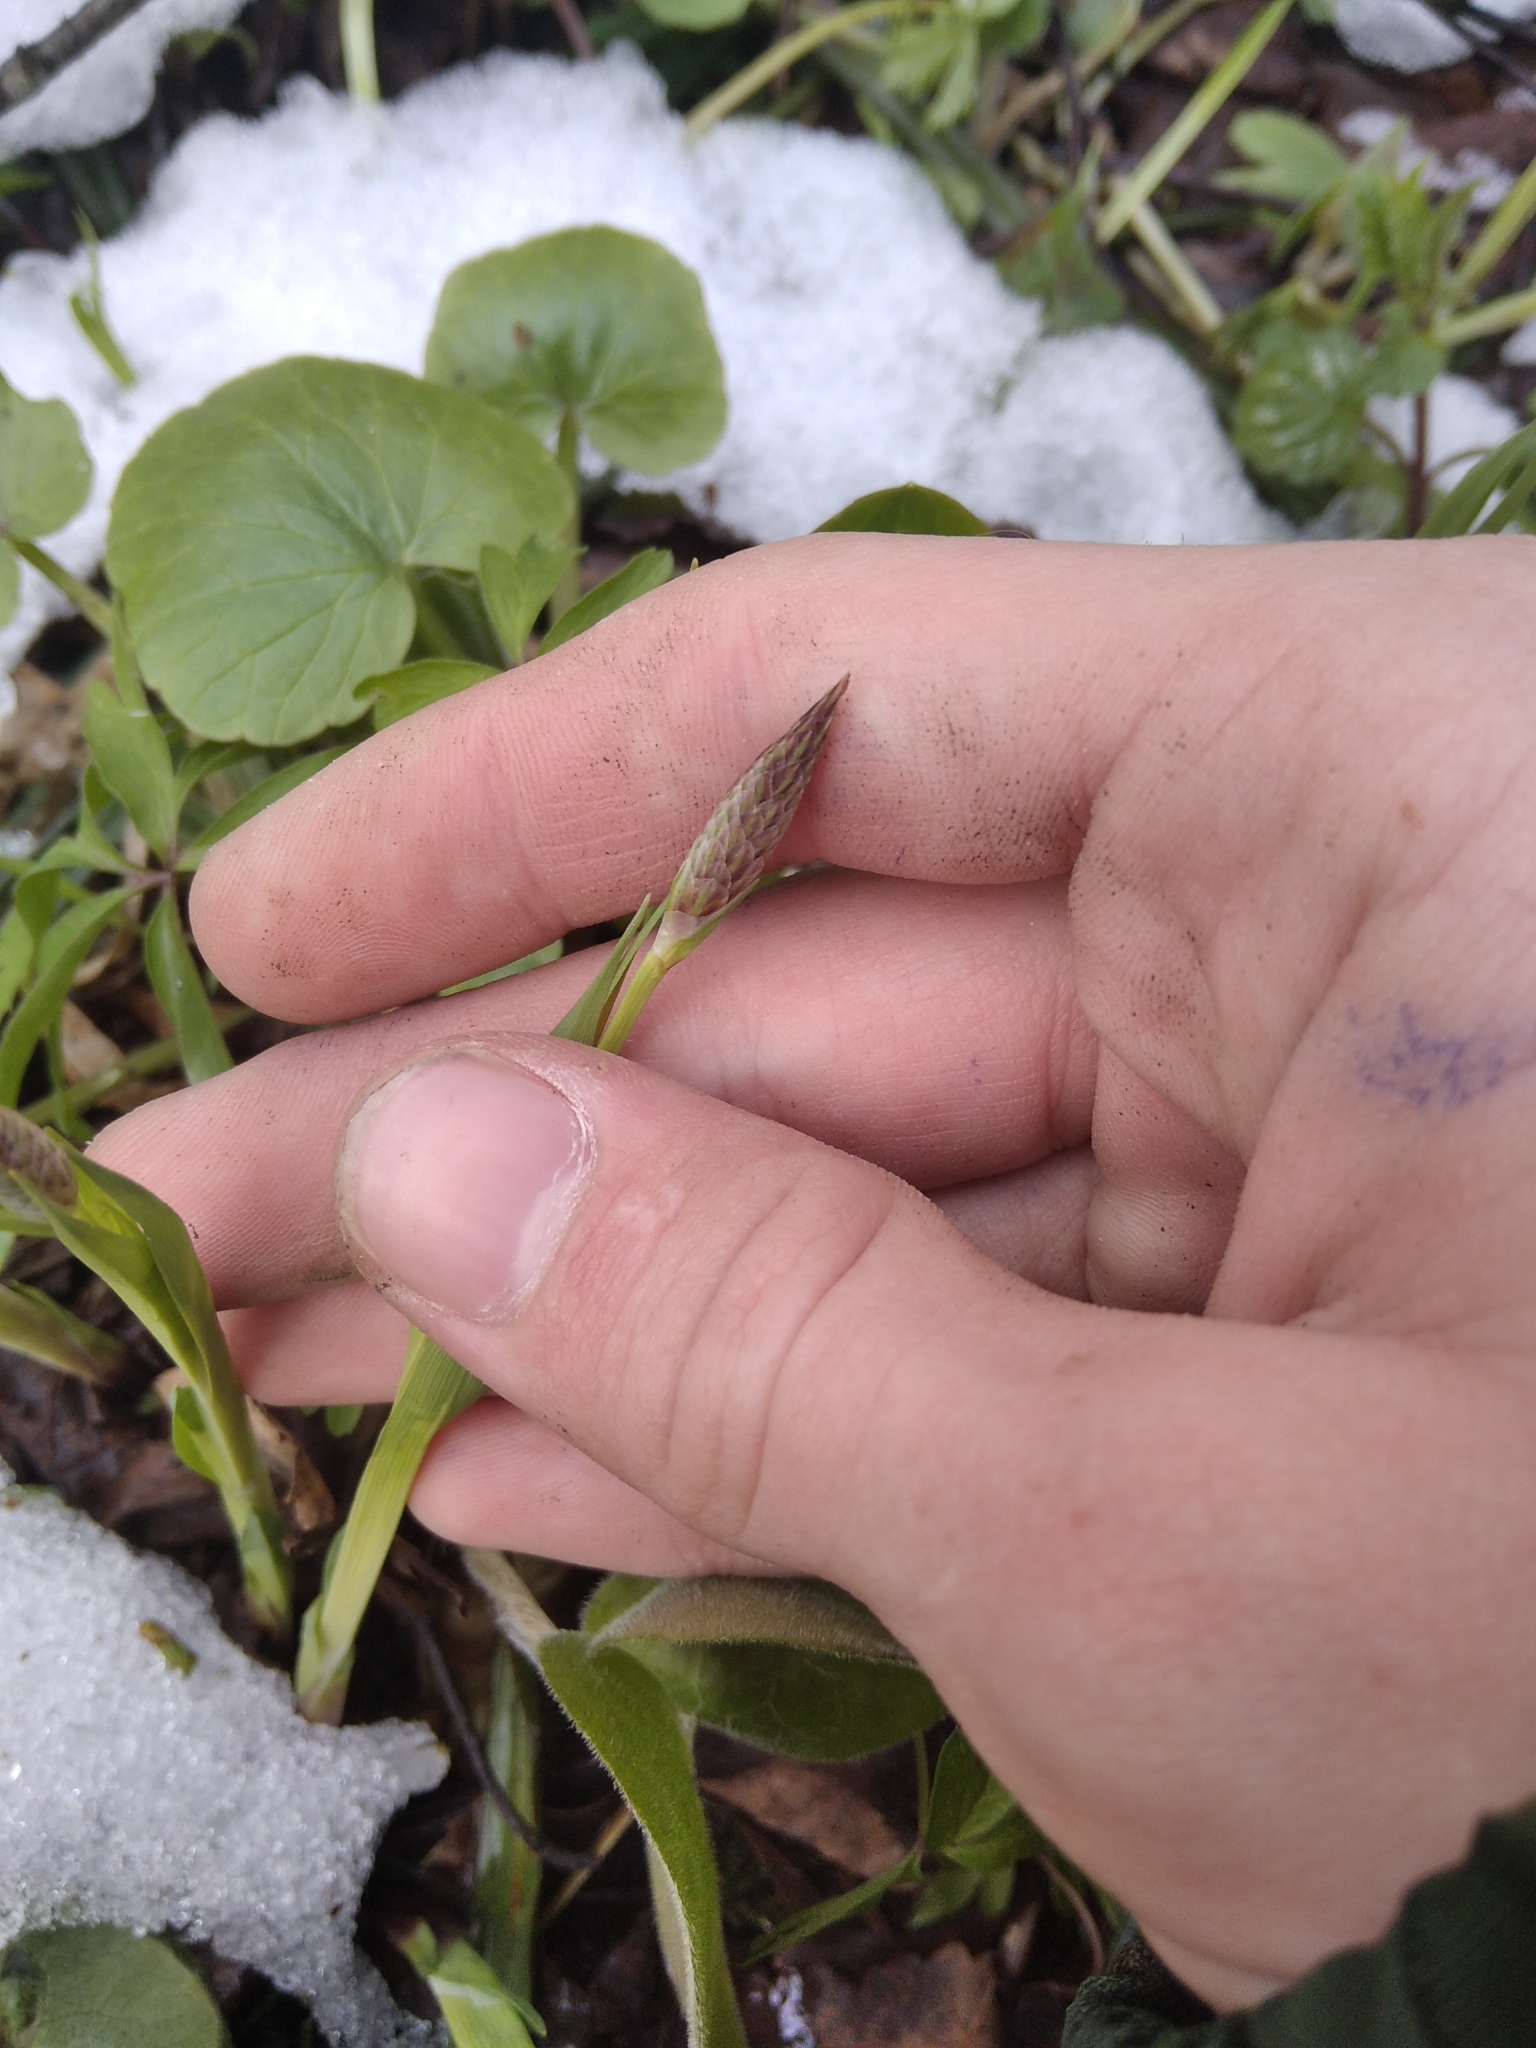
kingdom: Plantae
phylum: Tracheophyta
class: Liliopsida
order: Poales
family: Cyperaceae
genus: Carex
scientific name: Carex pilosa
